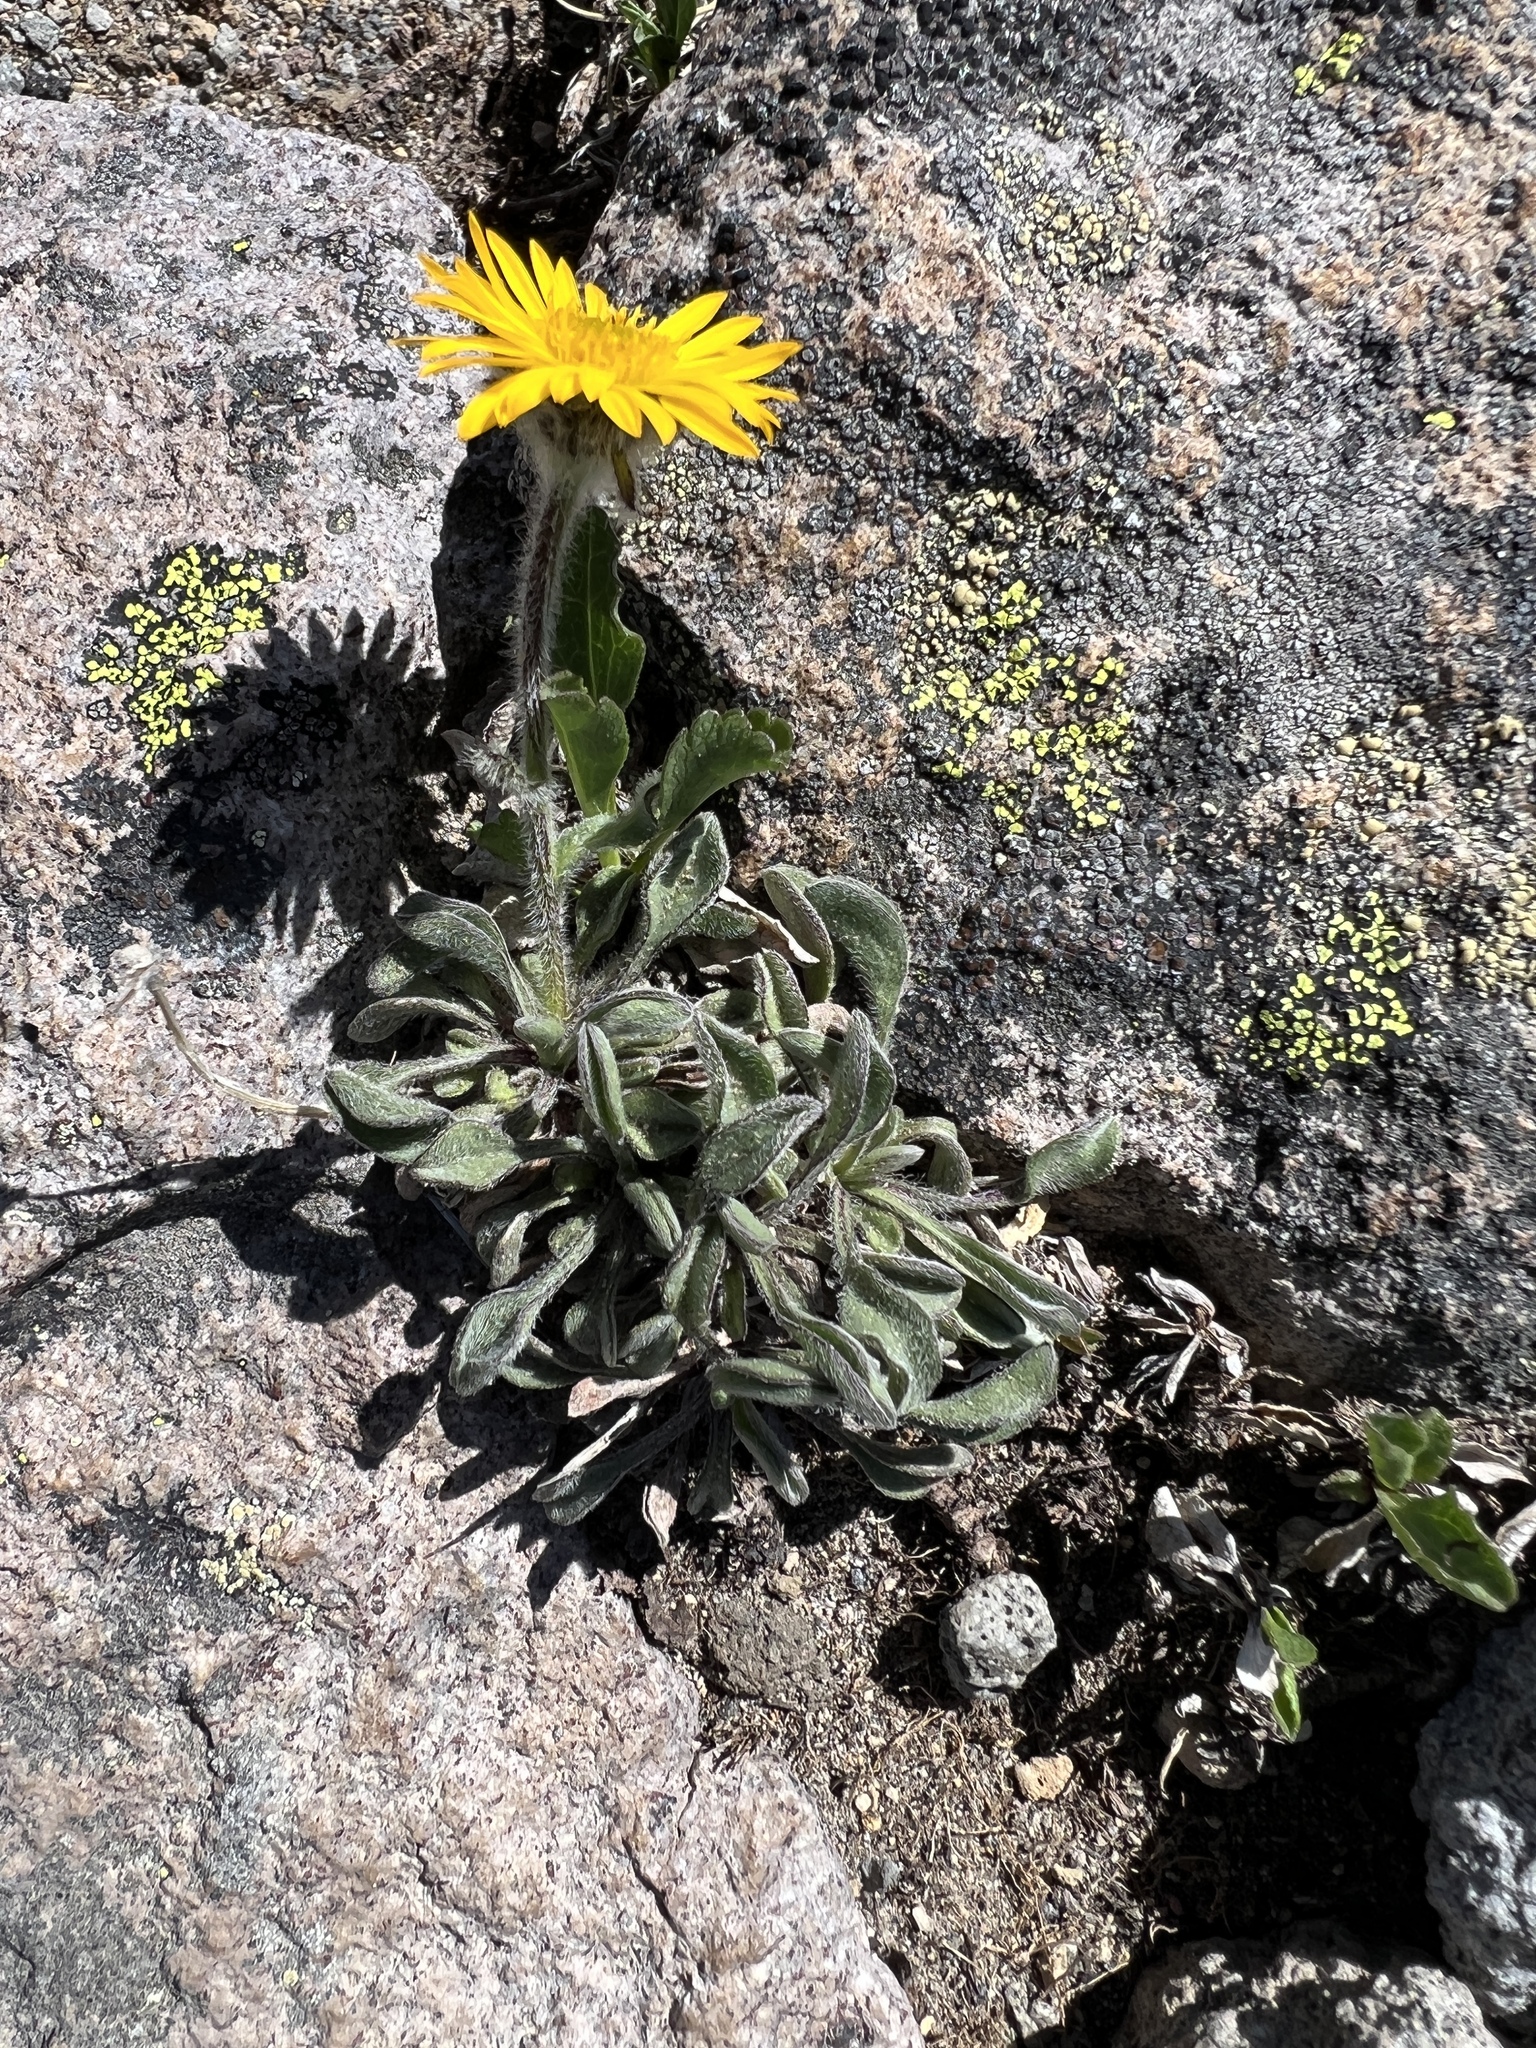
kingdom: Plantae
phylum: Tracheophyta
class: Magnoliopsida
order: Asterales
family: Asteraceae
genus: Erigeron
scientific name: Erigeron aureus
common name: Alpine yellow fleabane
